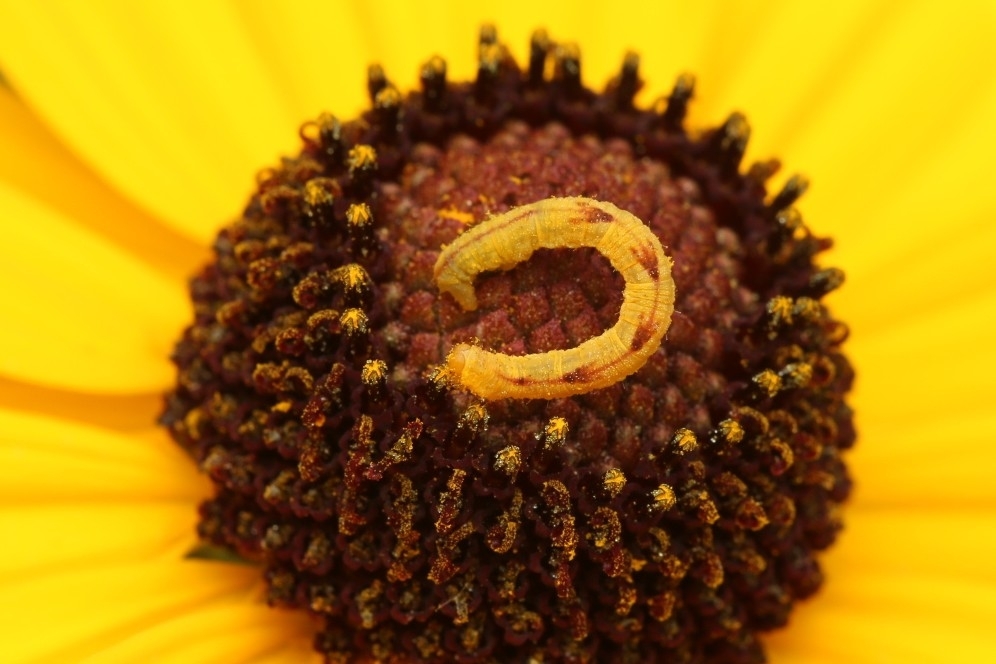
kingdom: Animalia
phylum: Arthropoda
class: Insecta
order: Lepidoptera
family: Geometridae
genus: Eupithecia
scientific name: Eupithecia miserulata
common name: Common eupithecia
